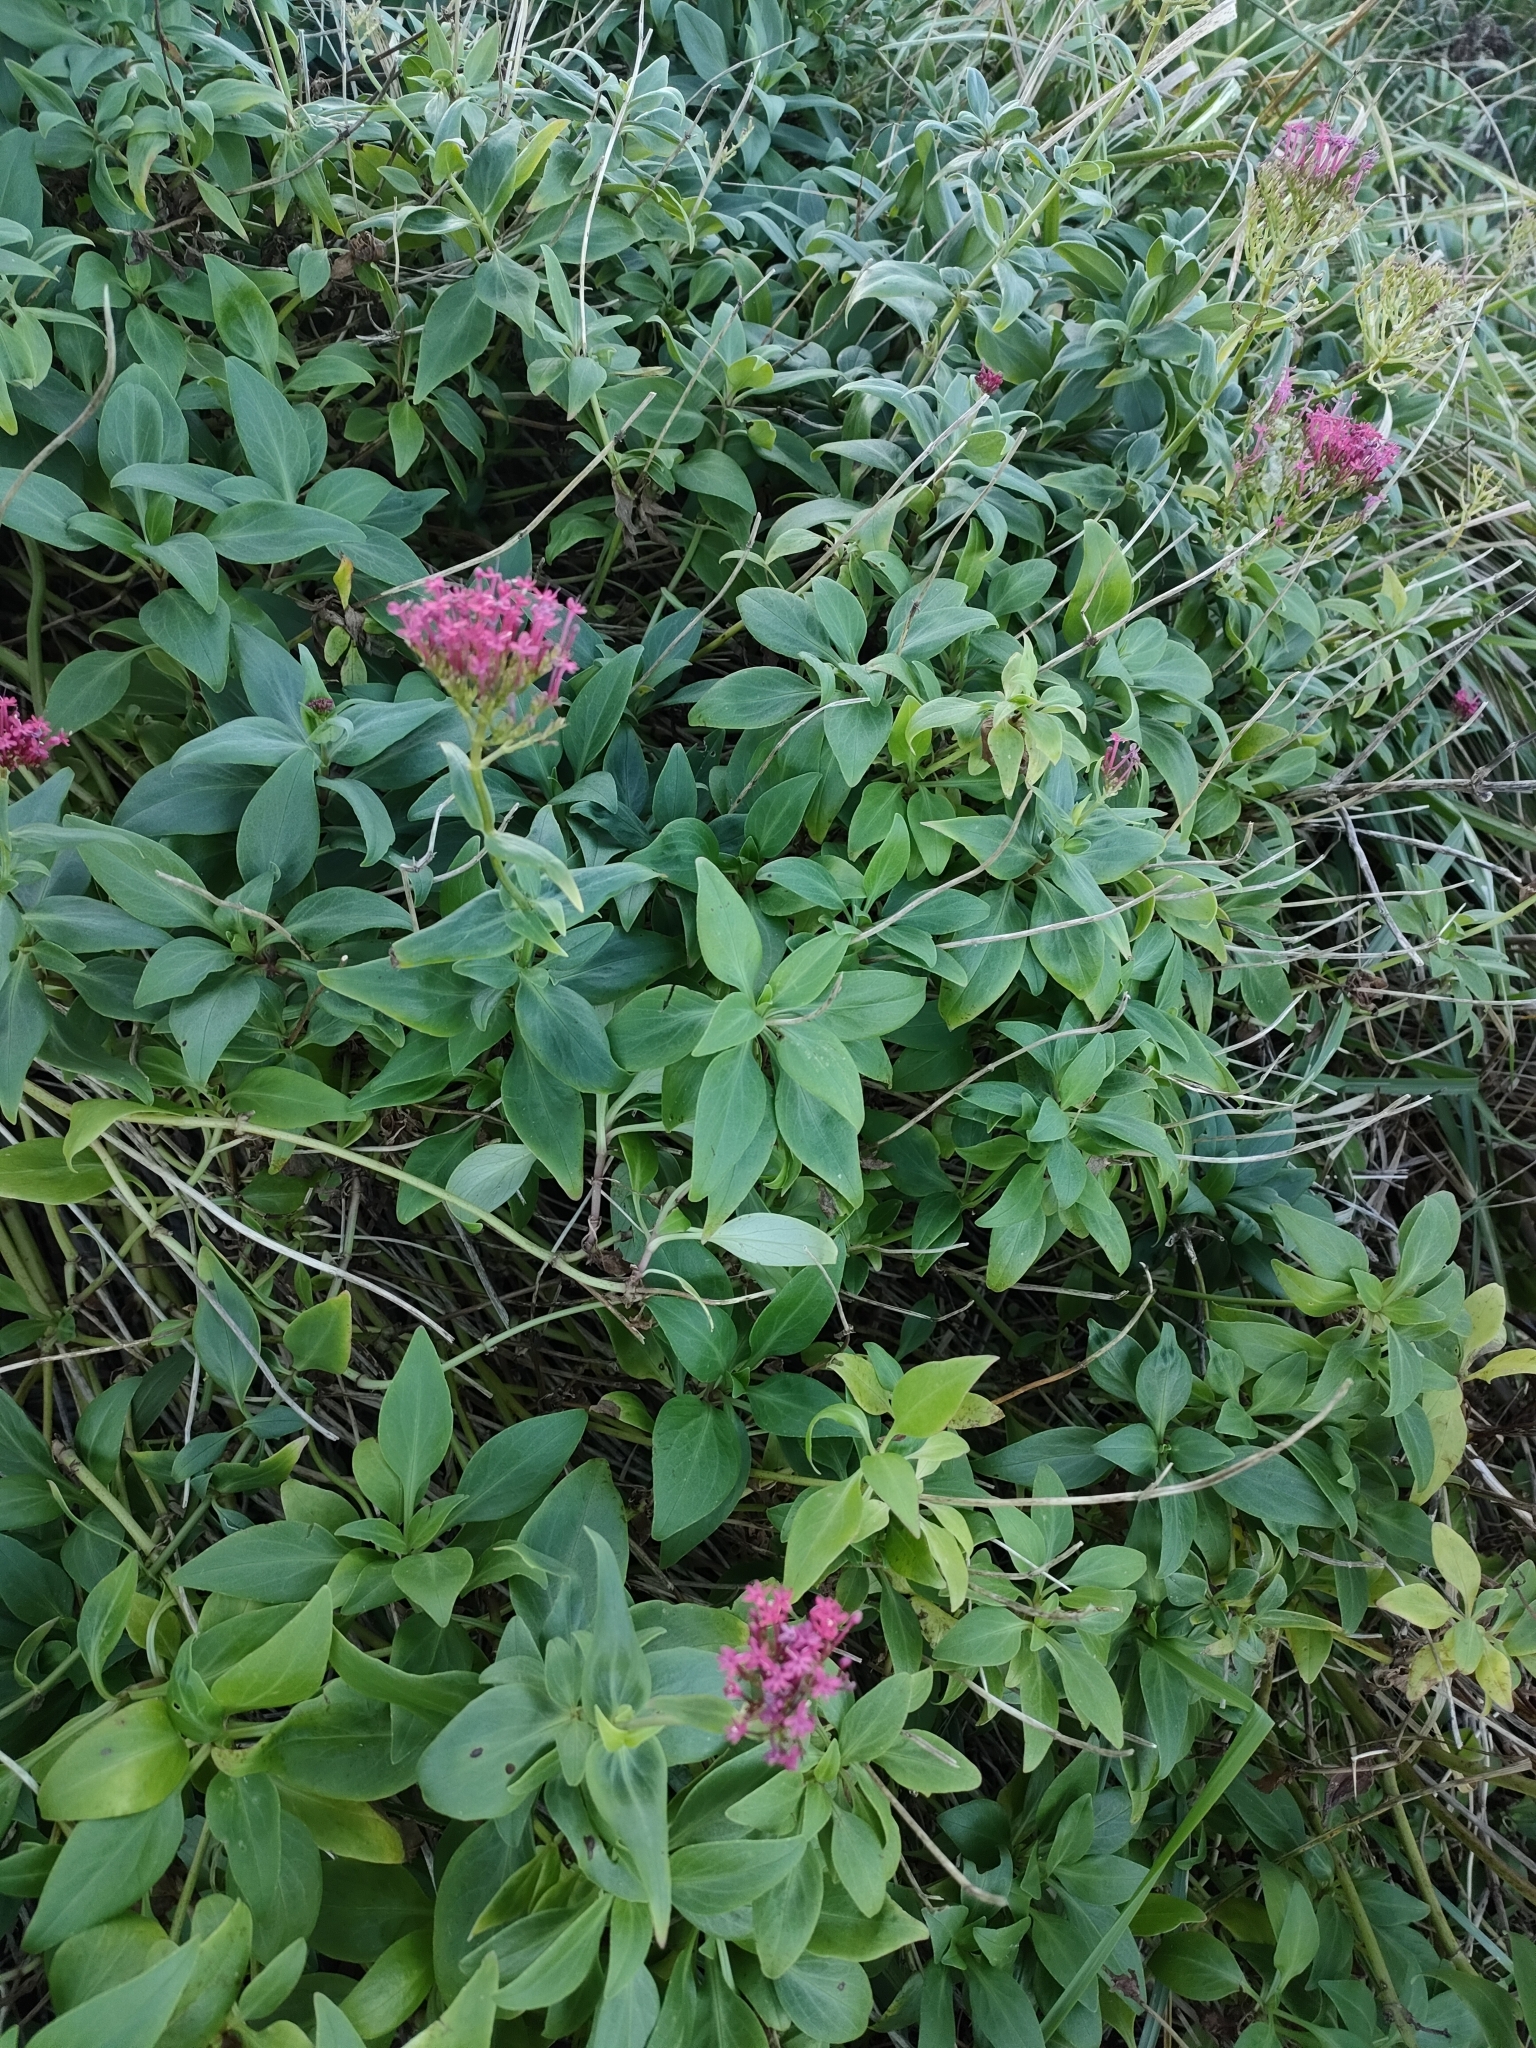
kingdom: Plantae
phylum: Tracheophyta
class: Magnoliopsida
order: Dipsacales
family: Caprifoliaceae
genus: Centranthus
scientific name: Centranthus ruber
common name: Red valerian
